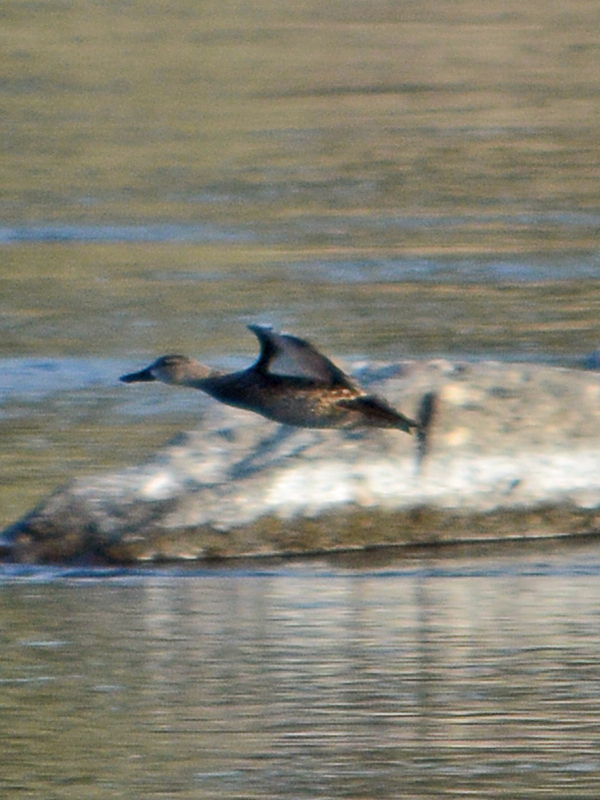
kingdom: Animalia
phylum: Chordata
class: Aves
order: Anseriformes
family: Anatidae
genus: Spatula
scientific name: Spatula discors
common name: Blue-winged teal
